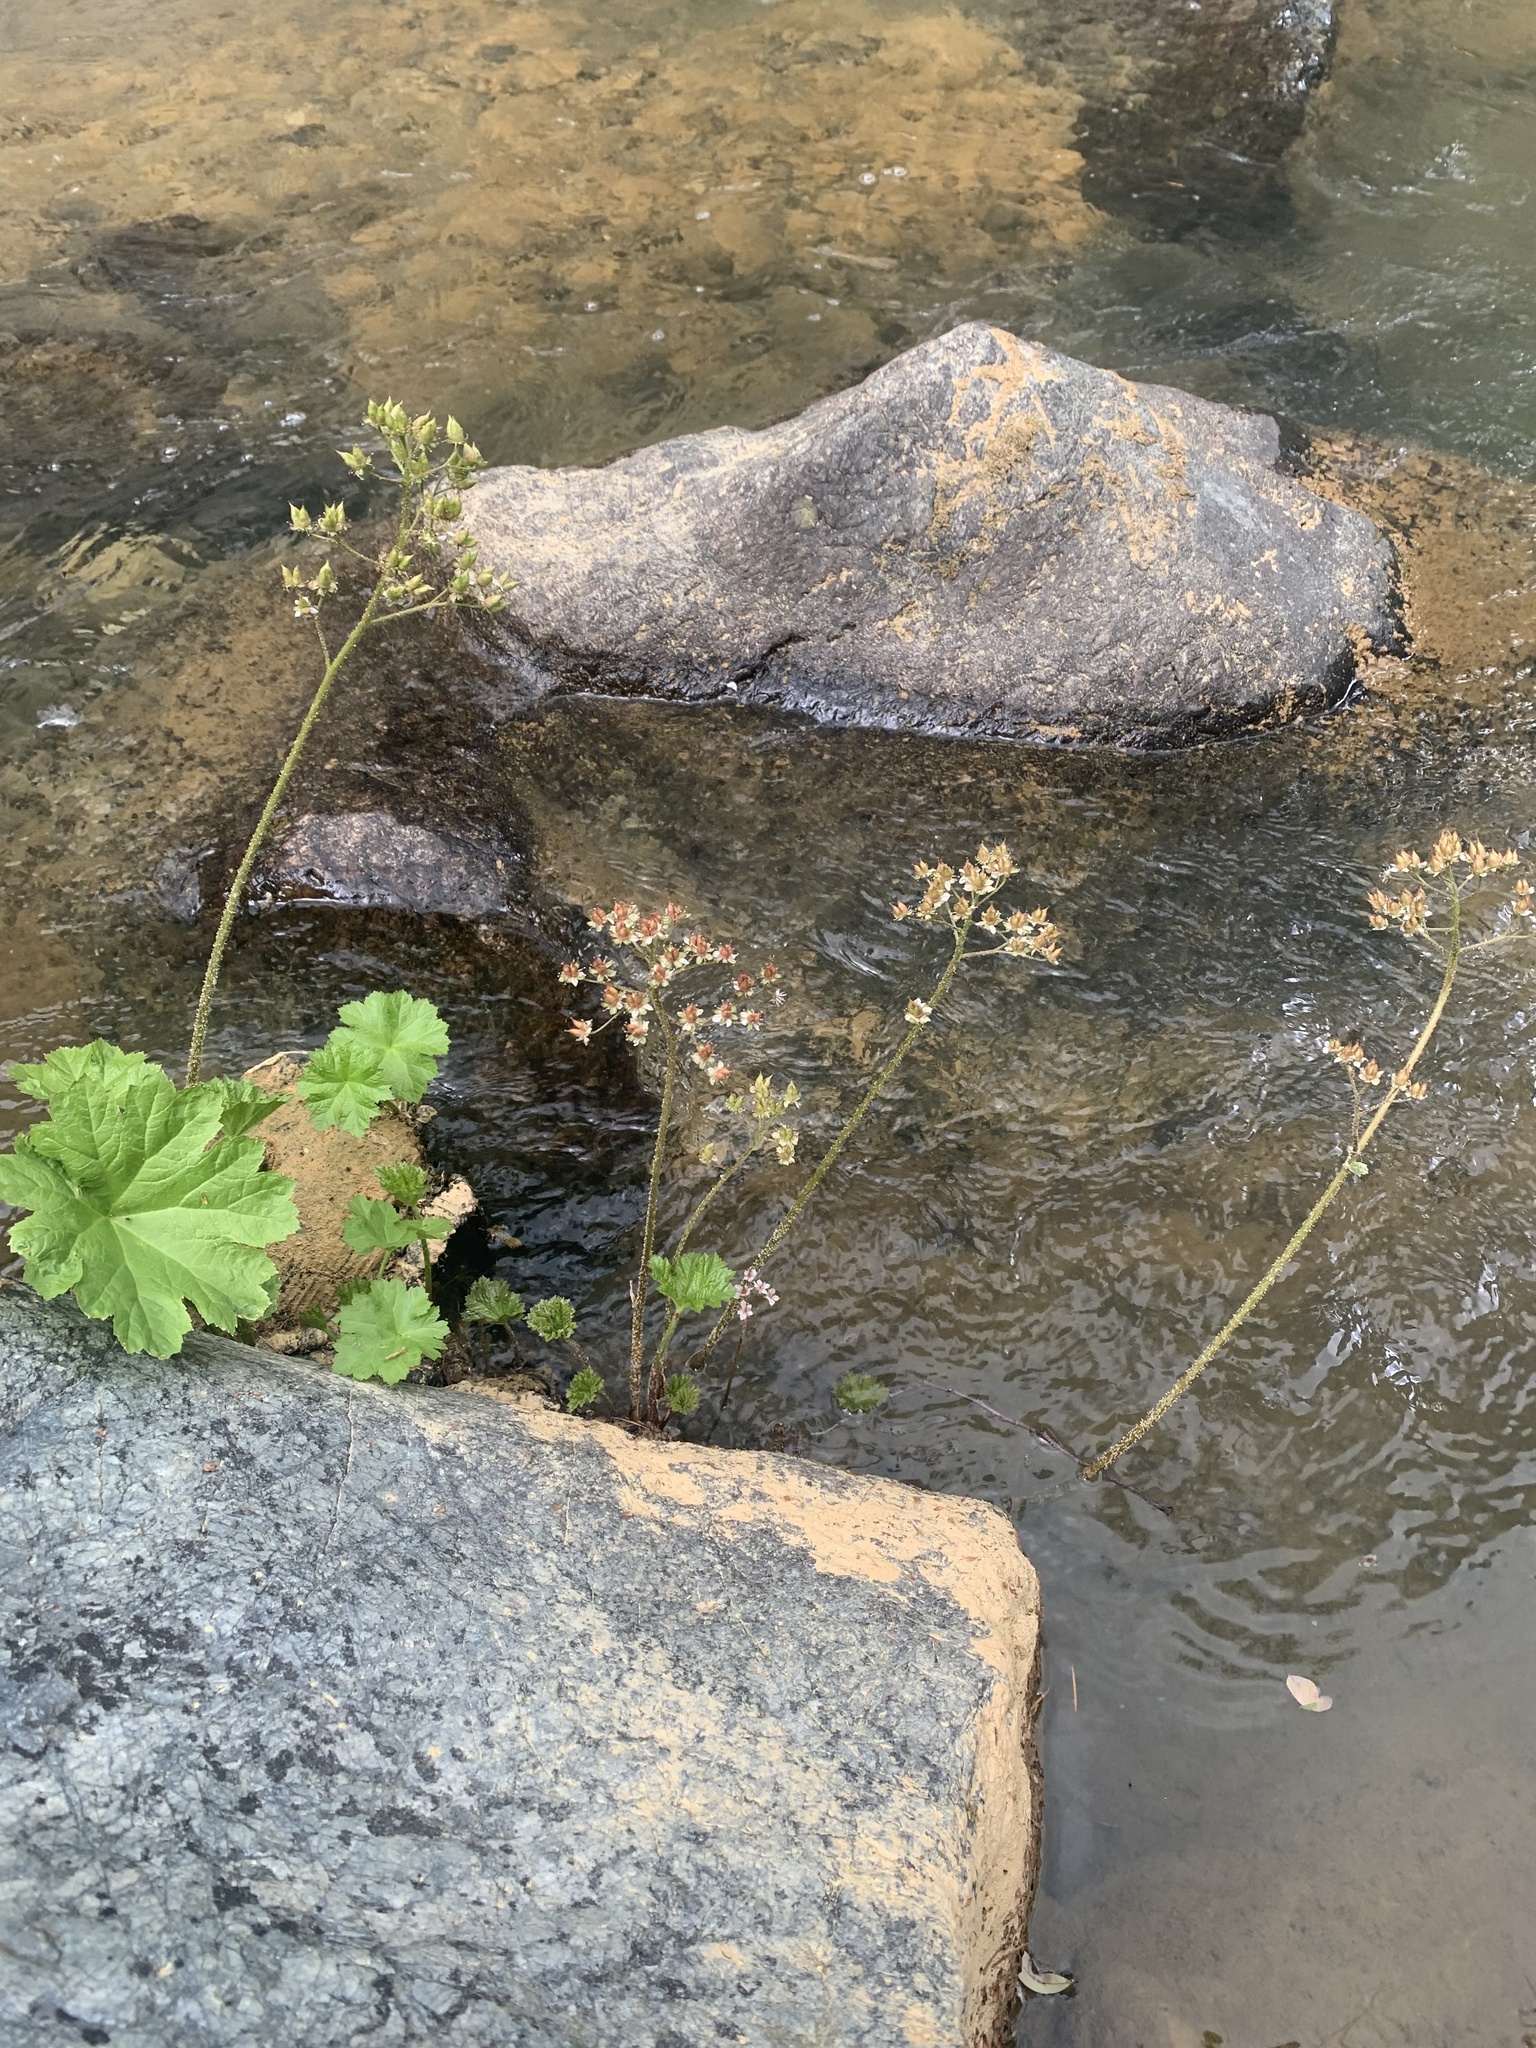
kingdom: Plantae
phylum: Tracheophyta
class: Magnoliopsida
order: Saxifragales
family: Saxifragaceae
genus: Darmera
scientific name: Darmera peltata
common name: Indian-rhubarb
